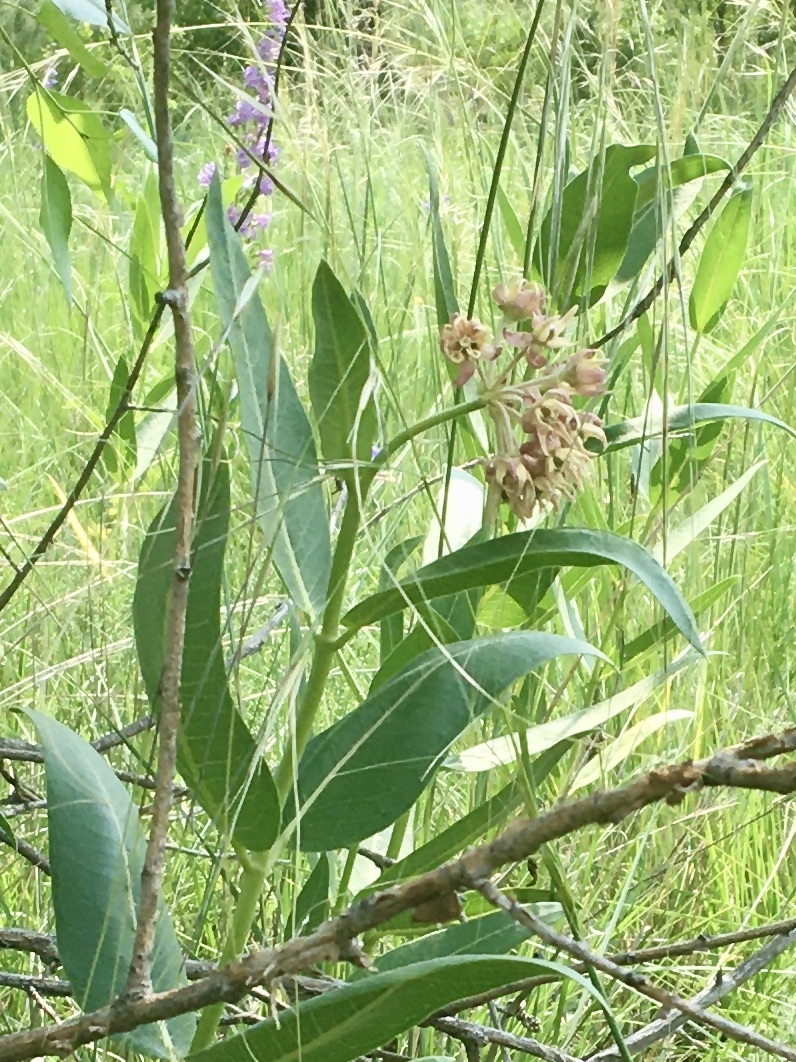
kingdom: Plantae
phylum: Tracheophyta
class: Magnoliopsida
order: Gentianales
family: Apocynaceae
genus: Asclepias
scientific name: Asclepias viridiflora
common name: Green comet milkweed
